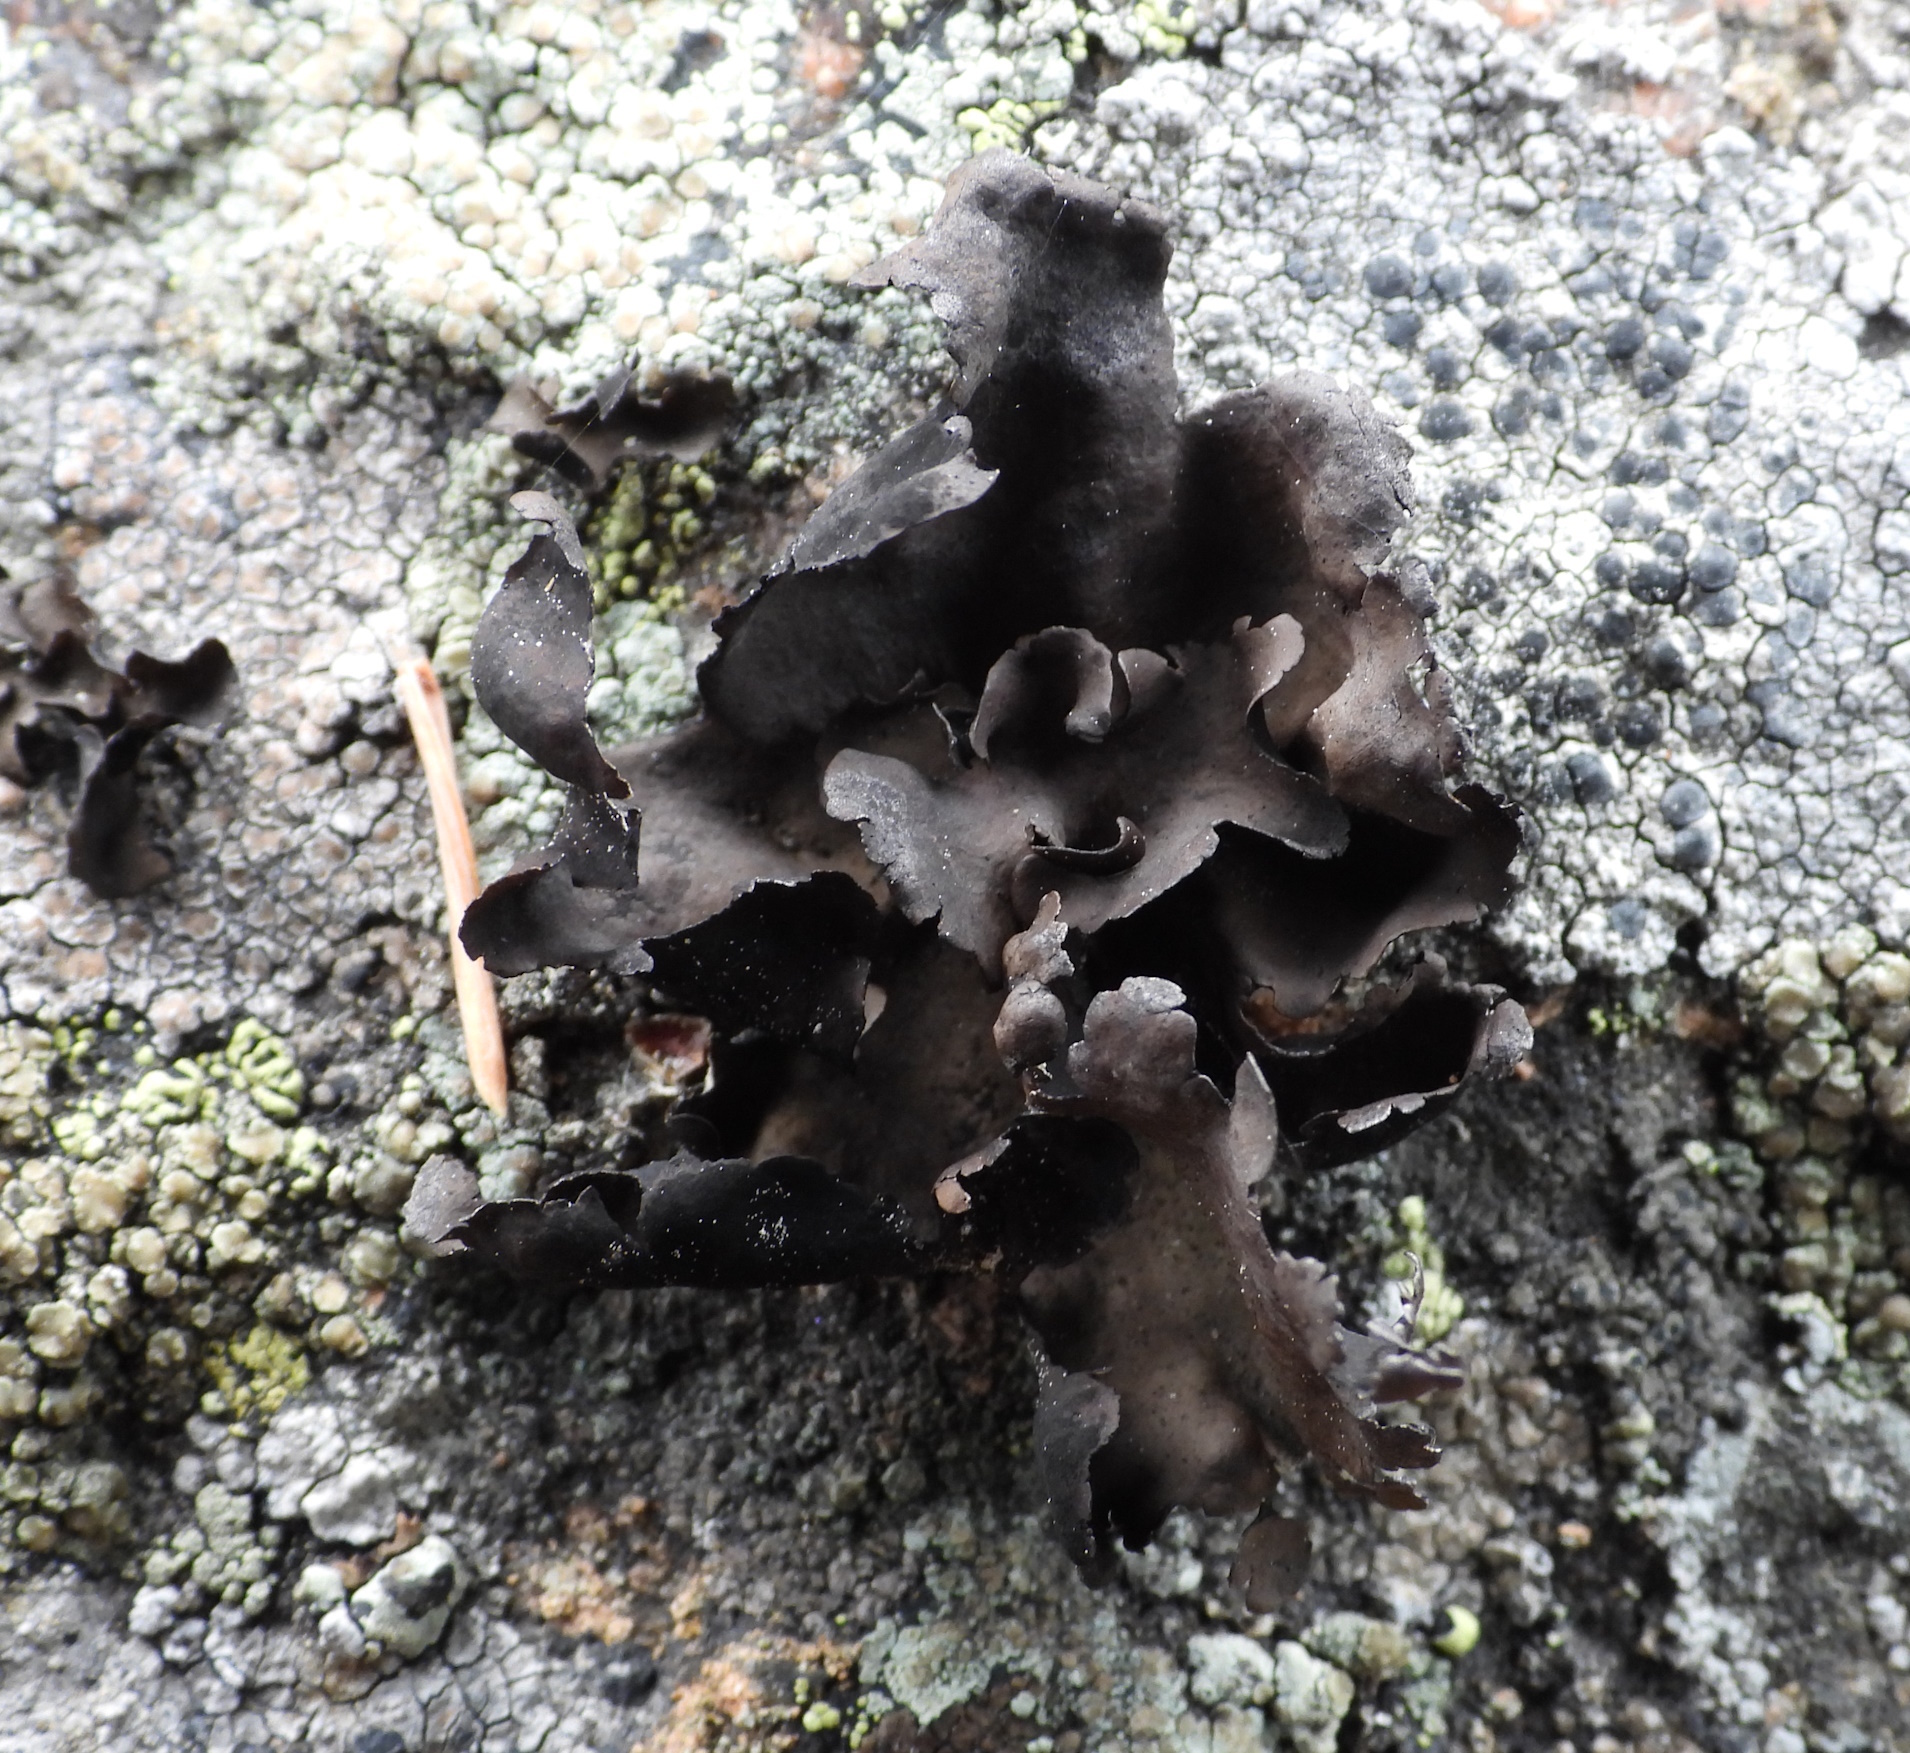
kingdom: Fungi
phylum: Ascomycota
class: Lecanoromycetes
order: Umbilicariales
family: Umbilicariaceae
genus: Umbilicaria
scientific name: Umbilicaria polyphylla
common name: Petalled rocktripe lichen
